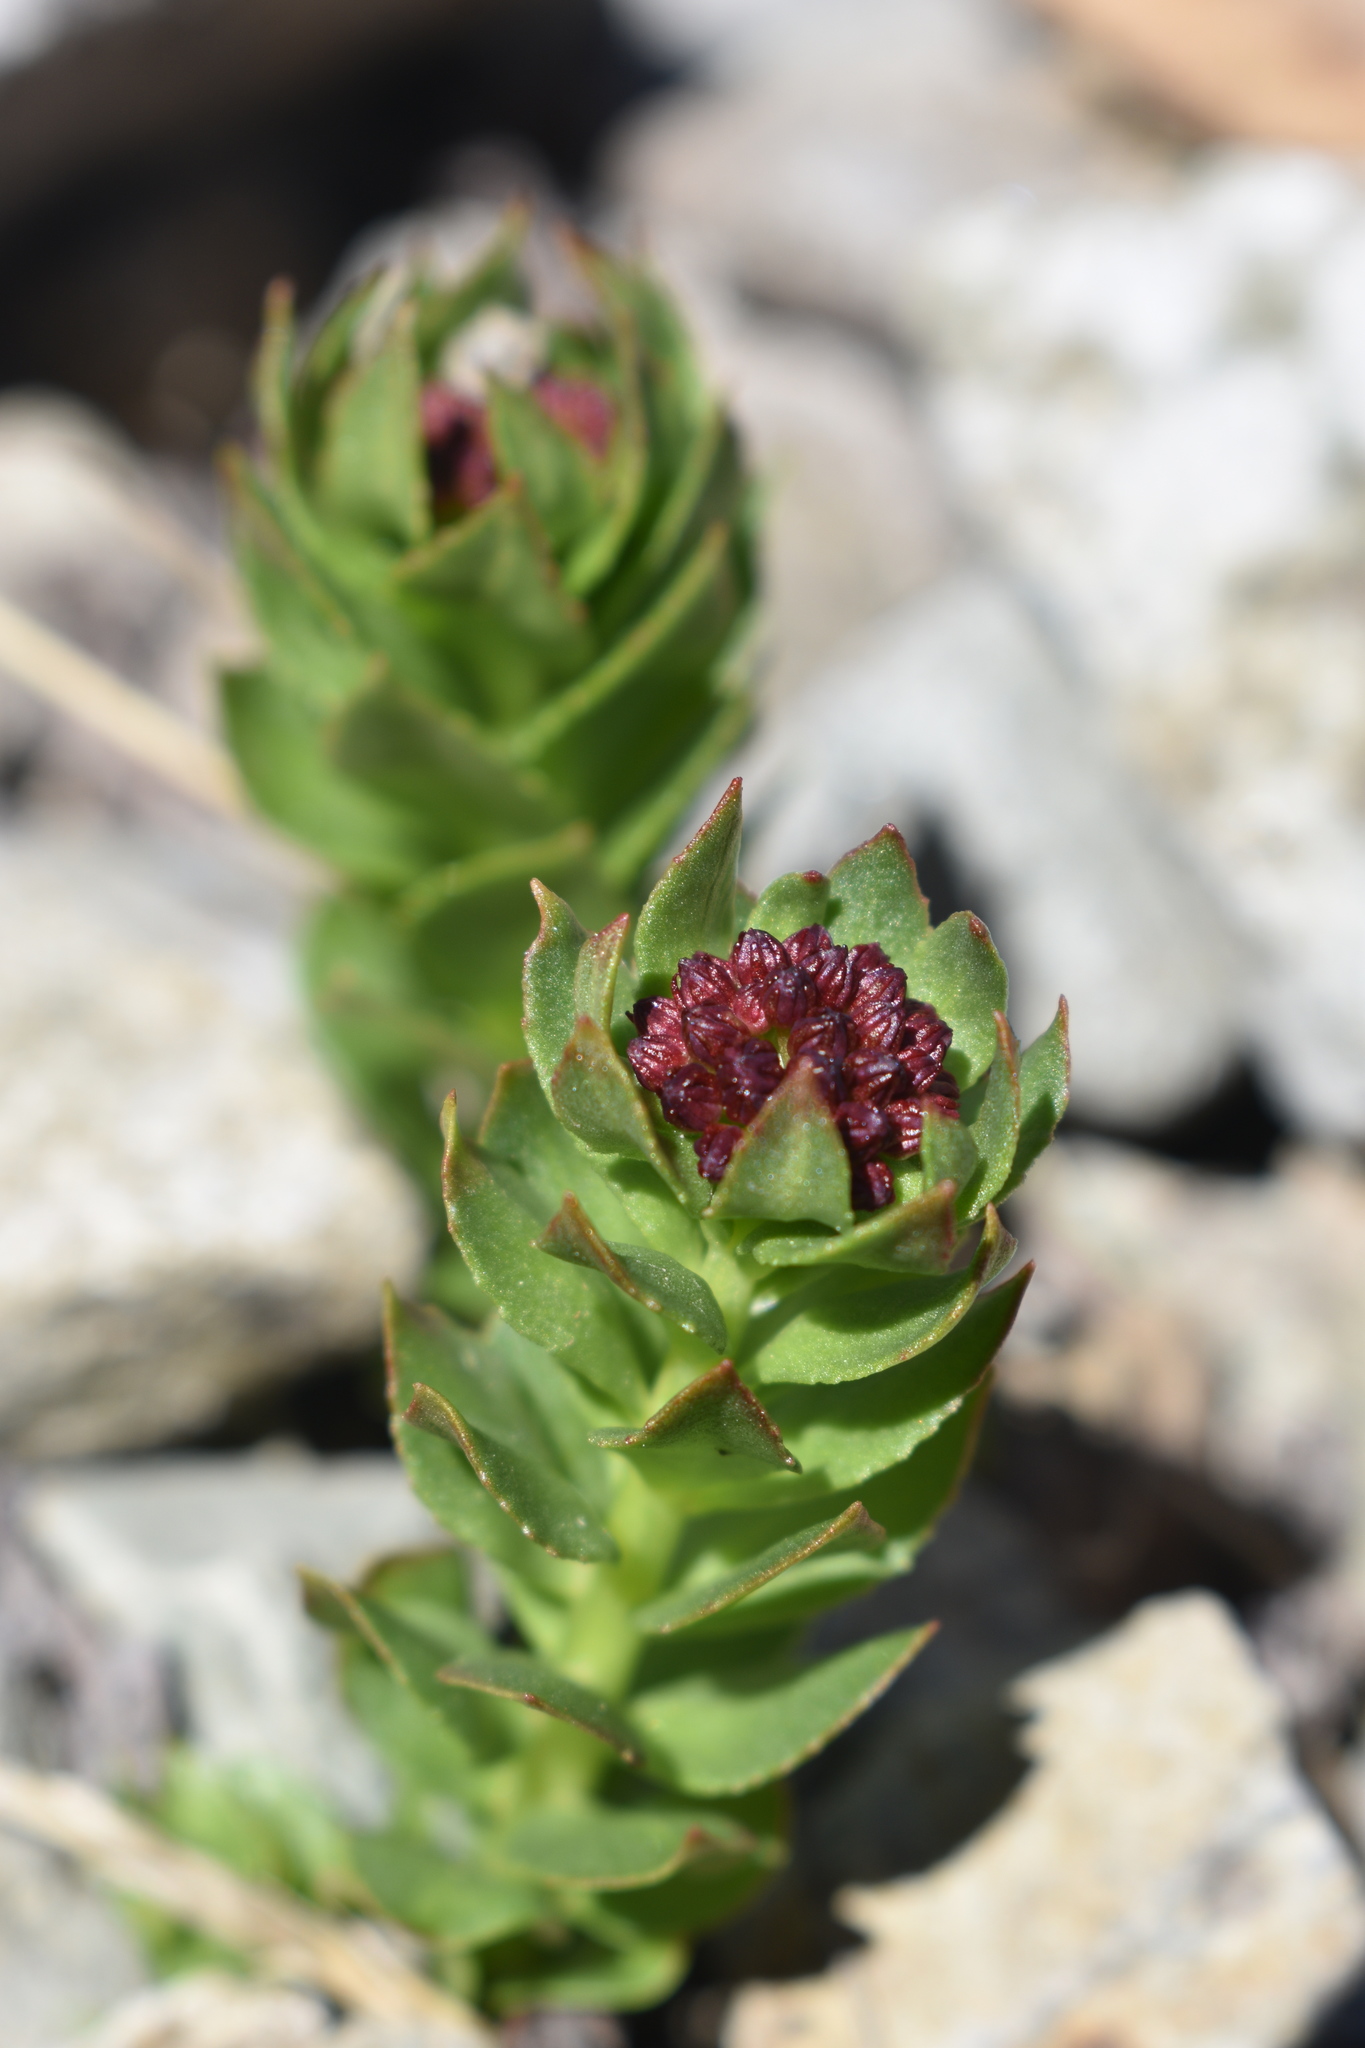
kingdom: Plantae
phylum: Tracheophyta
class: Magnoliopsida
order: Saxifragales
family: Crassulaceae
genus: Rhodiola
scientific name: Rhodiola integrifolia
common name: Western roseroot
